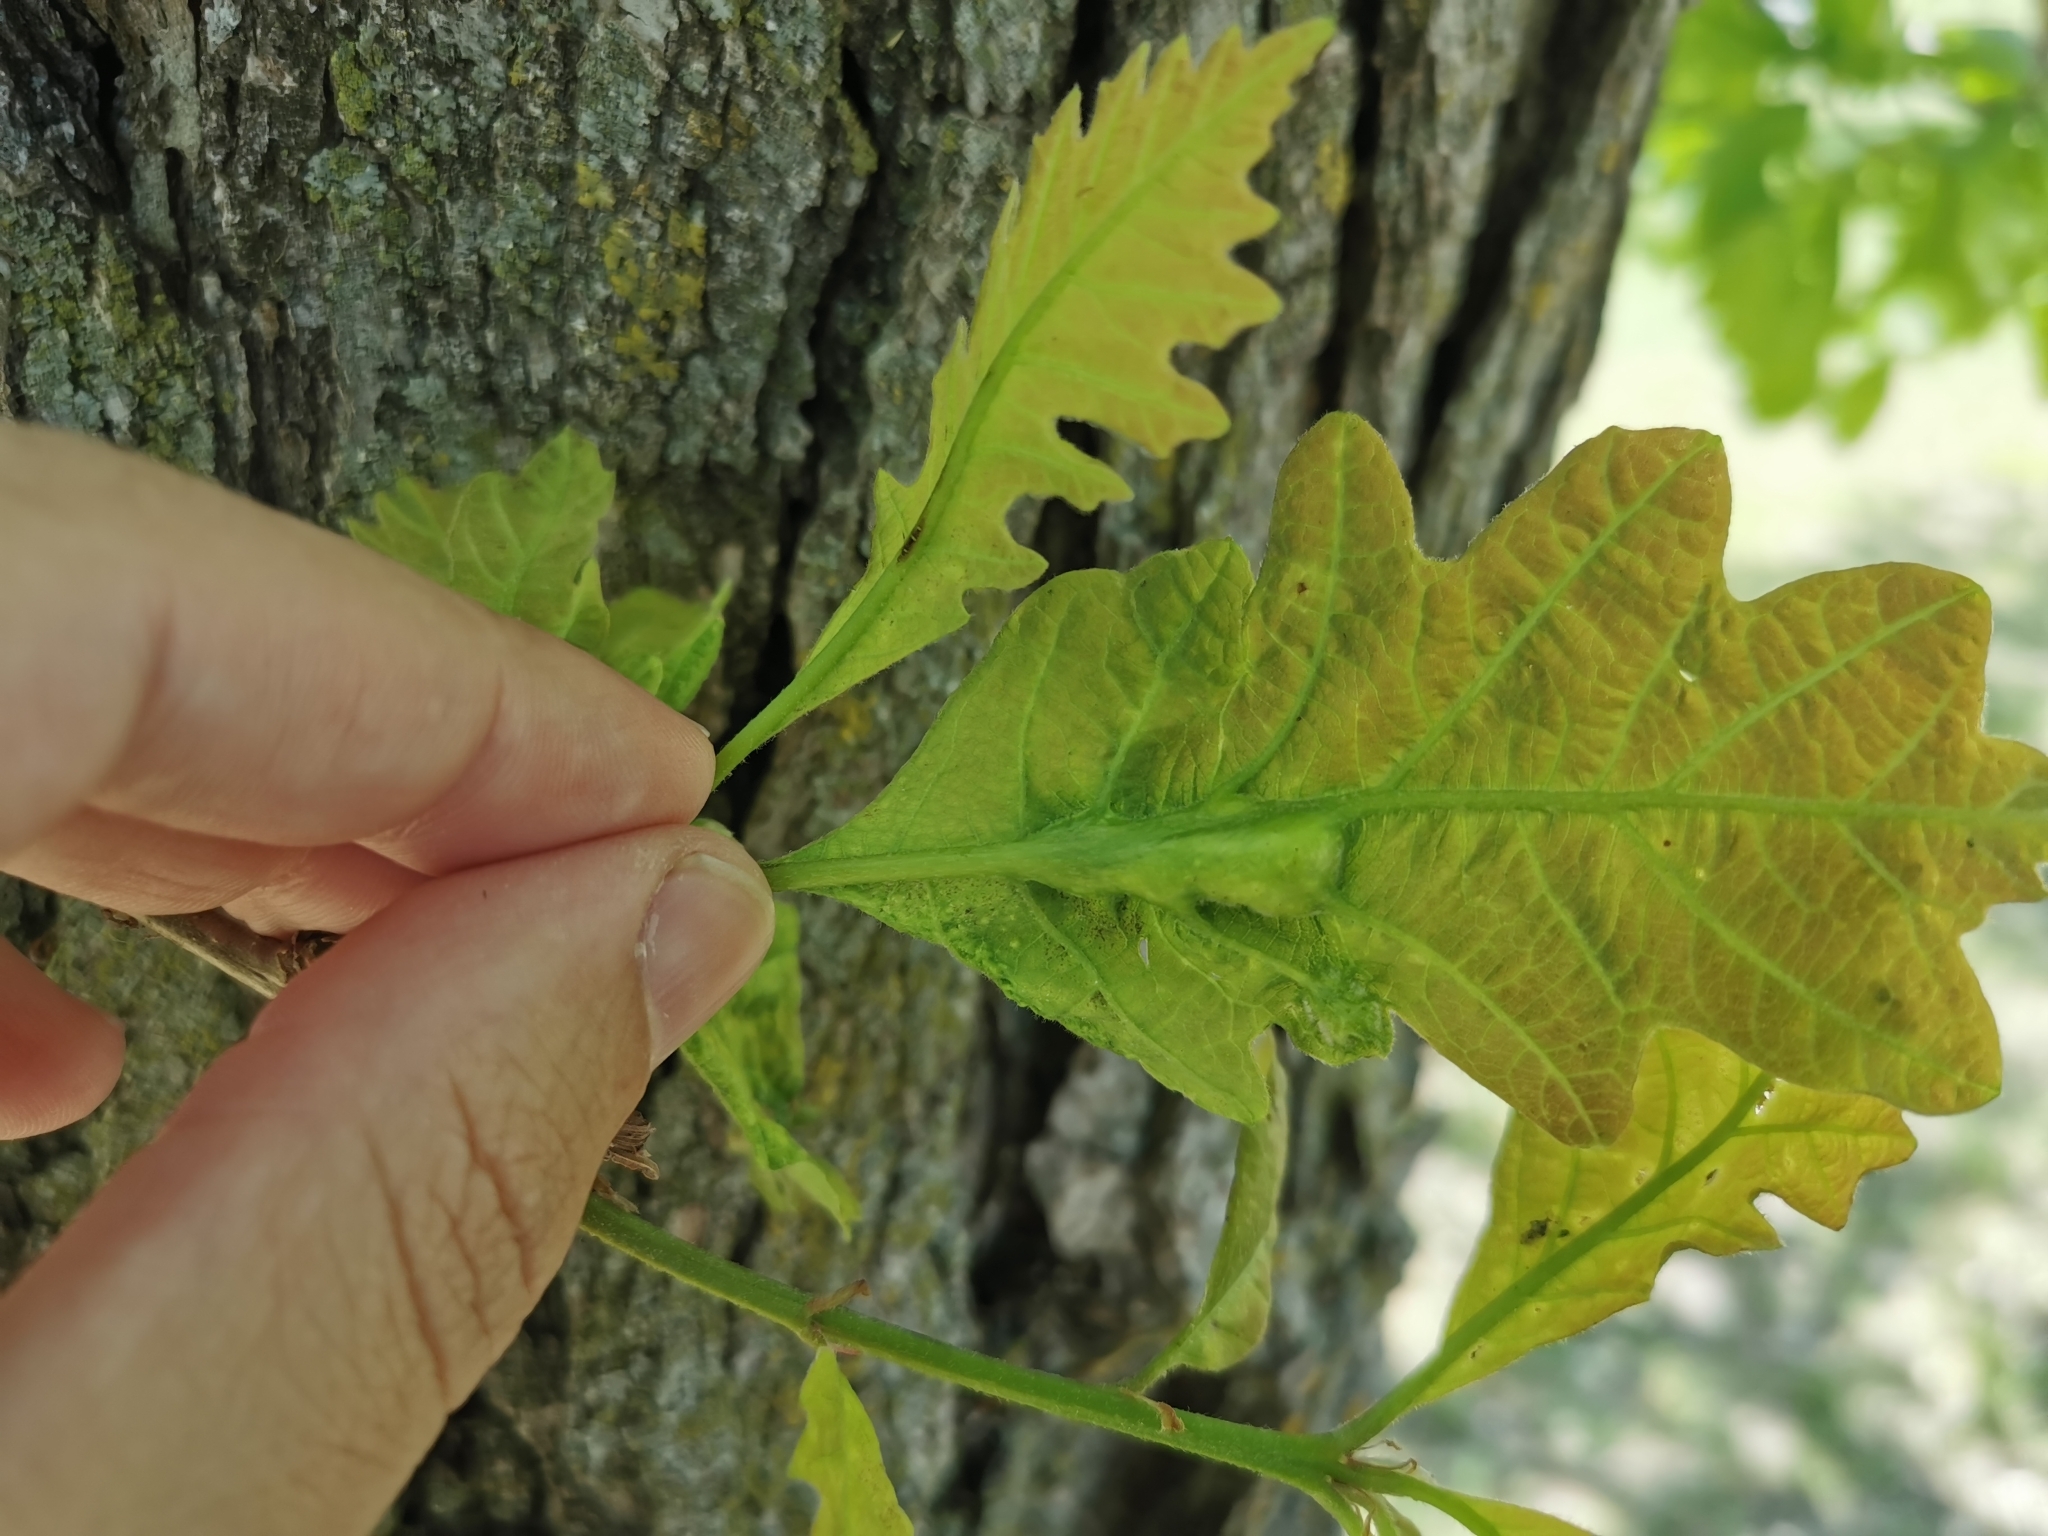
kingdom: Animalia
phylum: Arthropoda
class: Insecta
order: Hymenoptera
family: Cynipidae
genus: Bassettia
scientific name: Bassettia flavipes
